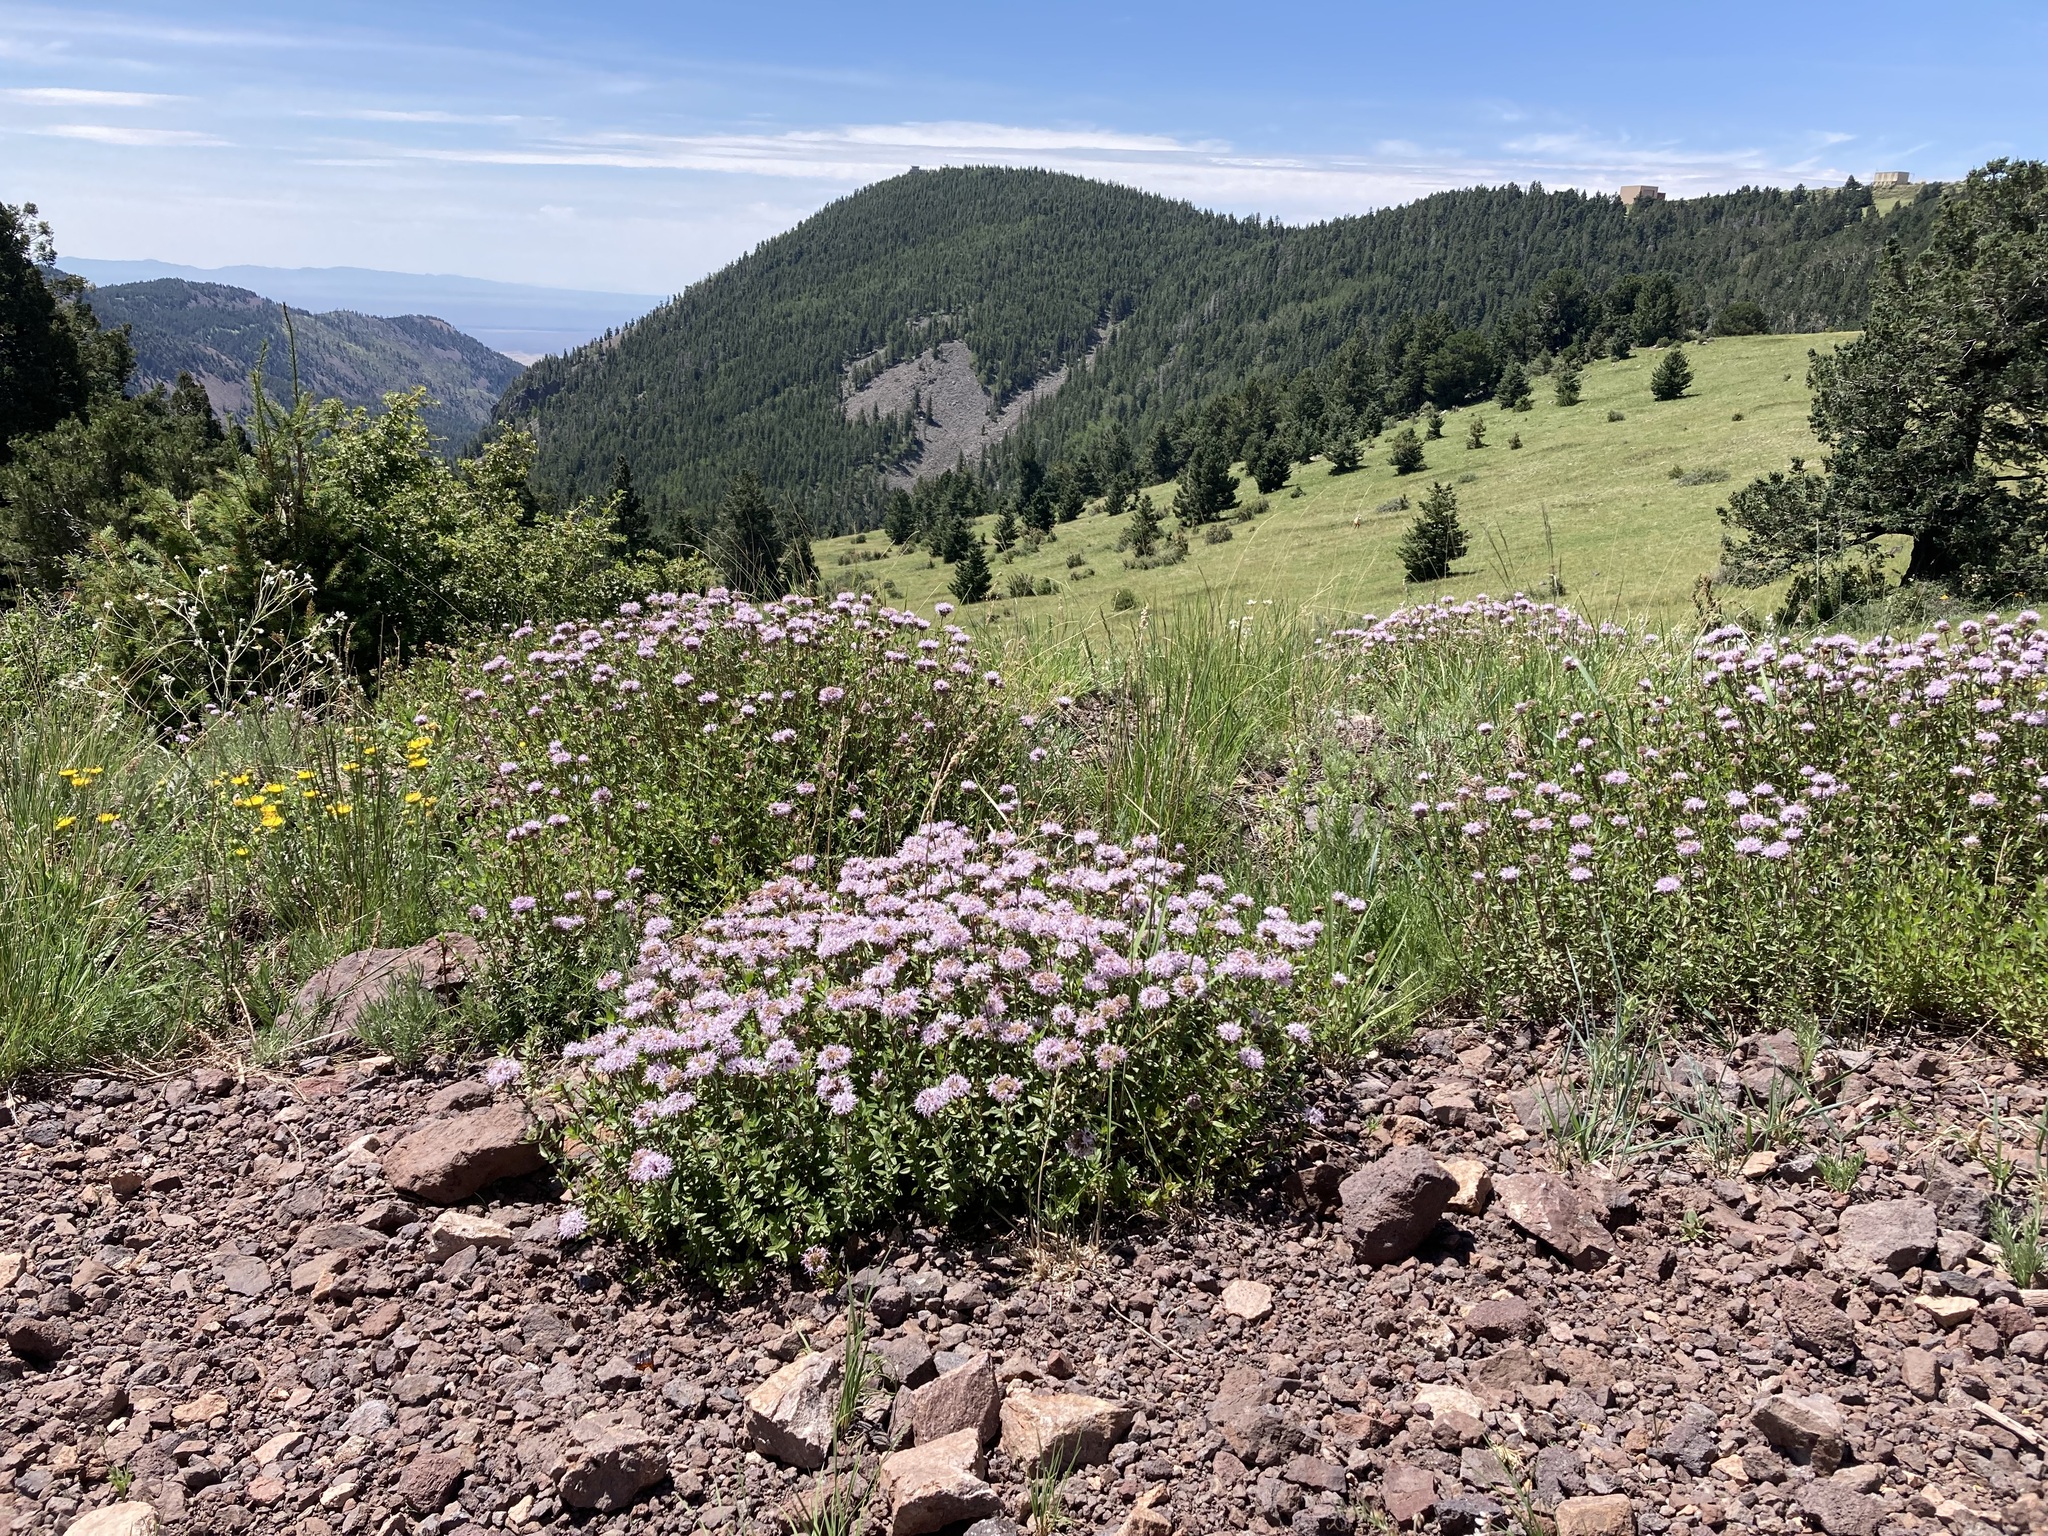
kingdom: Plantae
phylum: Tracheophyta
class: Magnoliopsida
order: Lamiales
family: Lamiaceae
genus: Monardella
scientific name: Monardella odoratissima
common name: Pacific monardella
